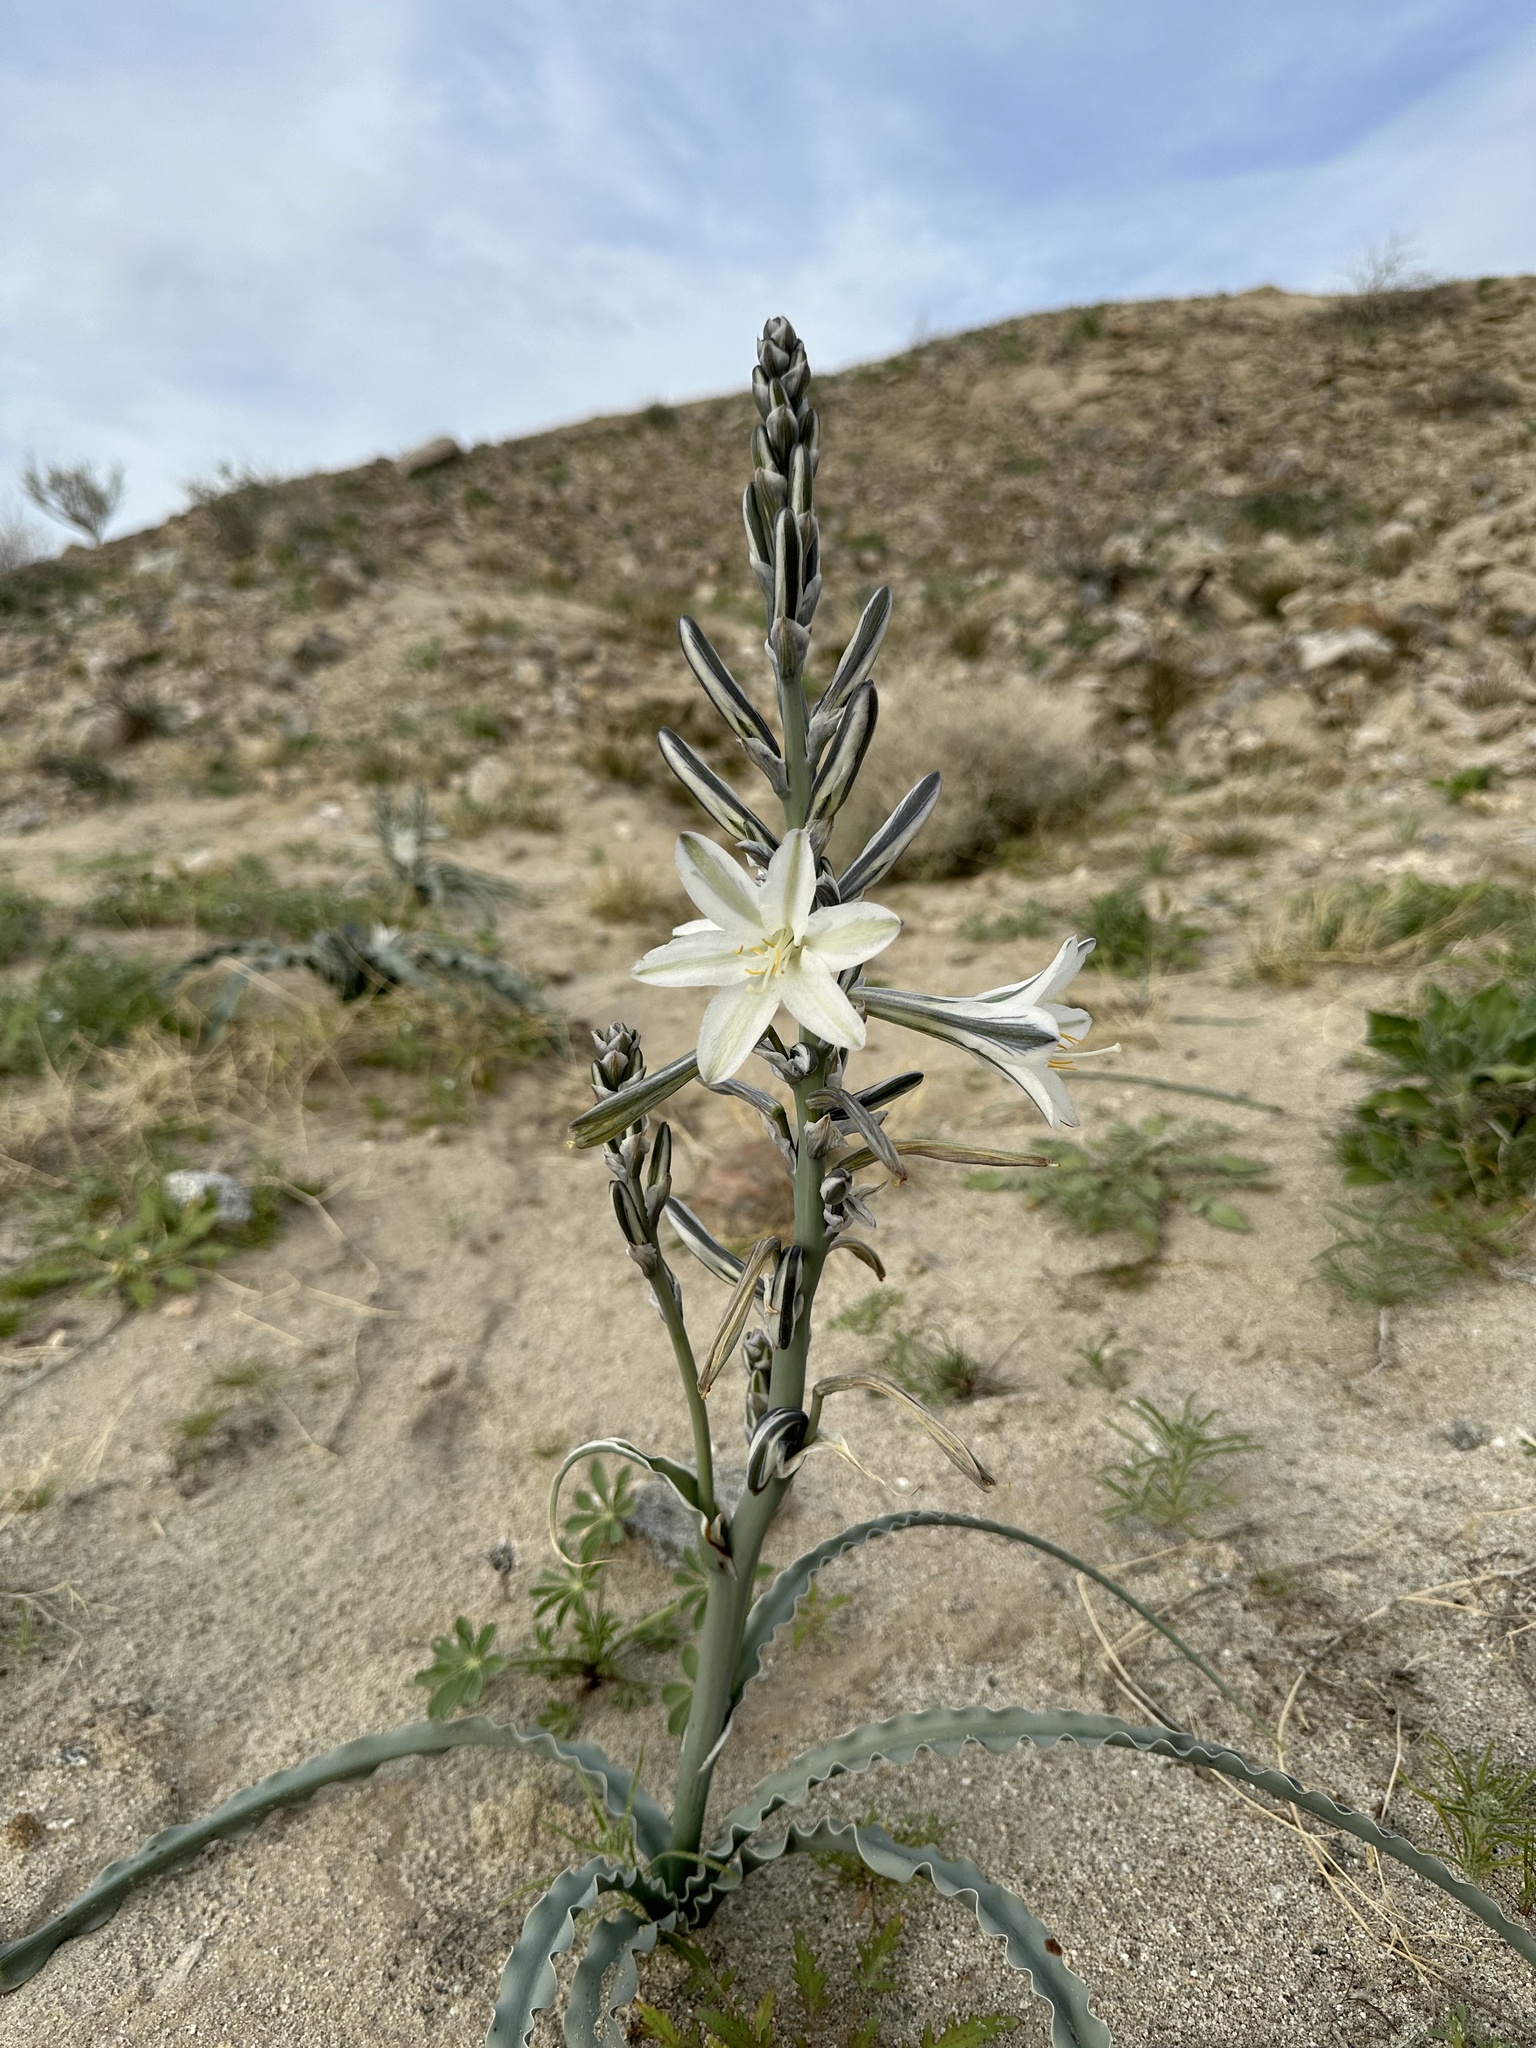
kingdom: Plantae
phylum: Tracheophyta
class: Liliopsida
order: Asparagales
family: Asparagaceae
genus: Hesperocallis
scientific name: Hesperocallis undulata
